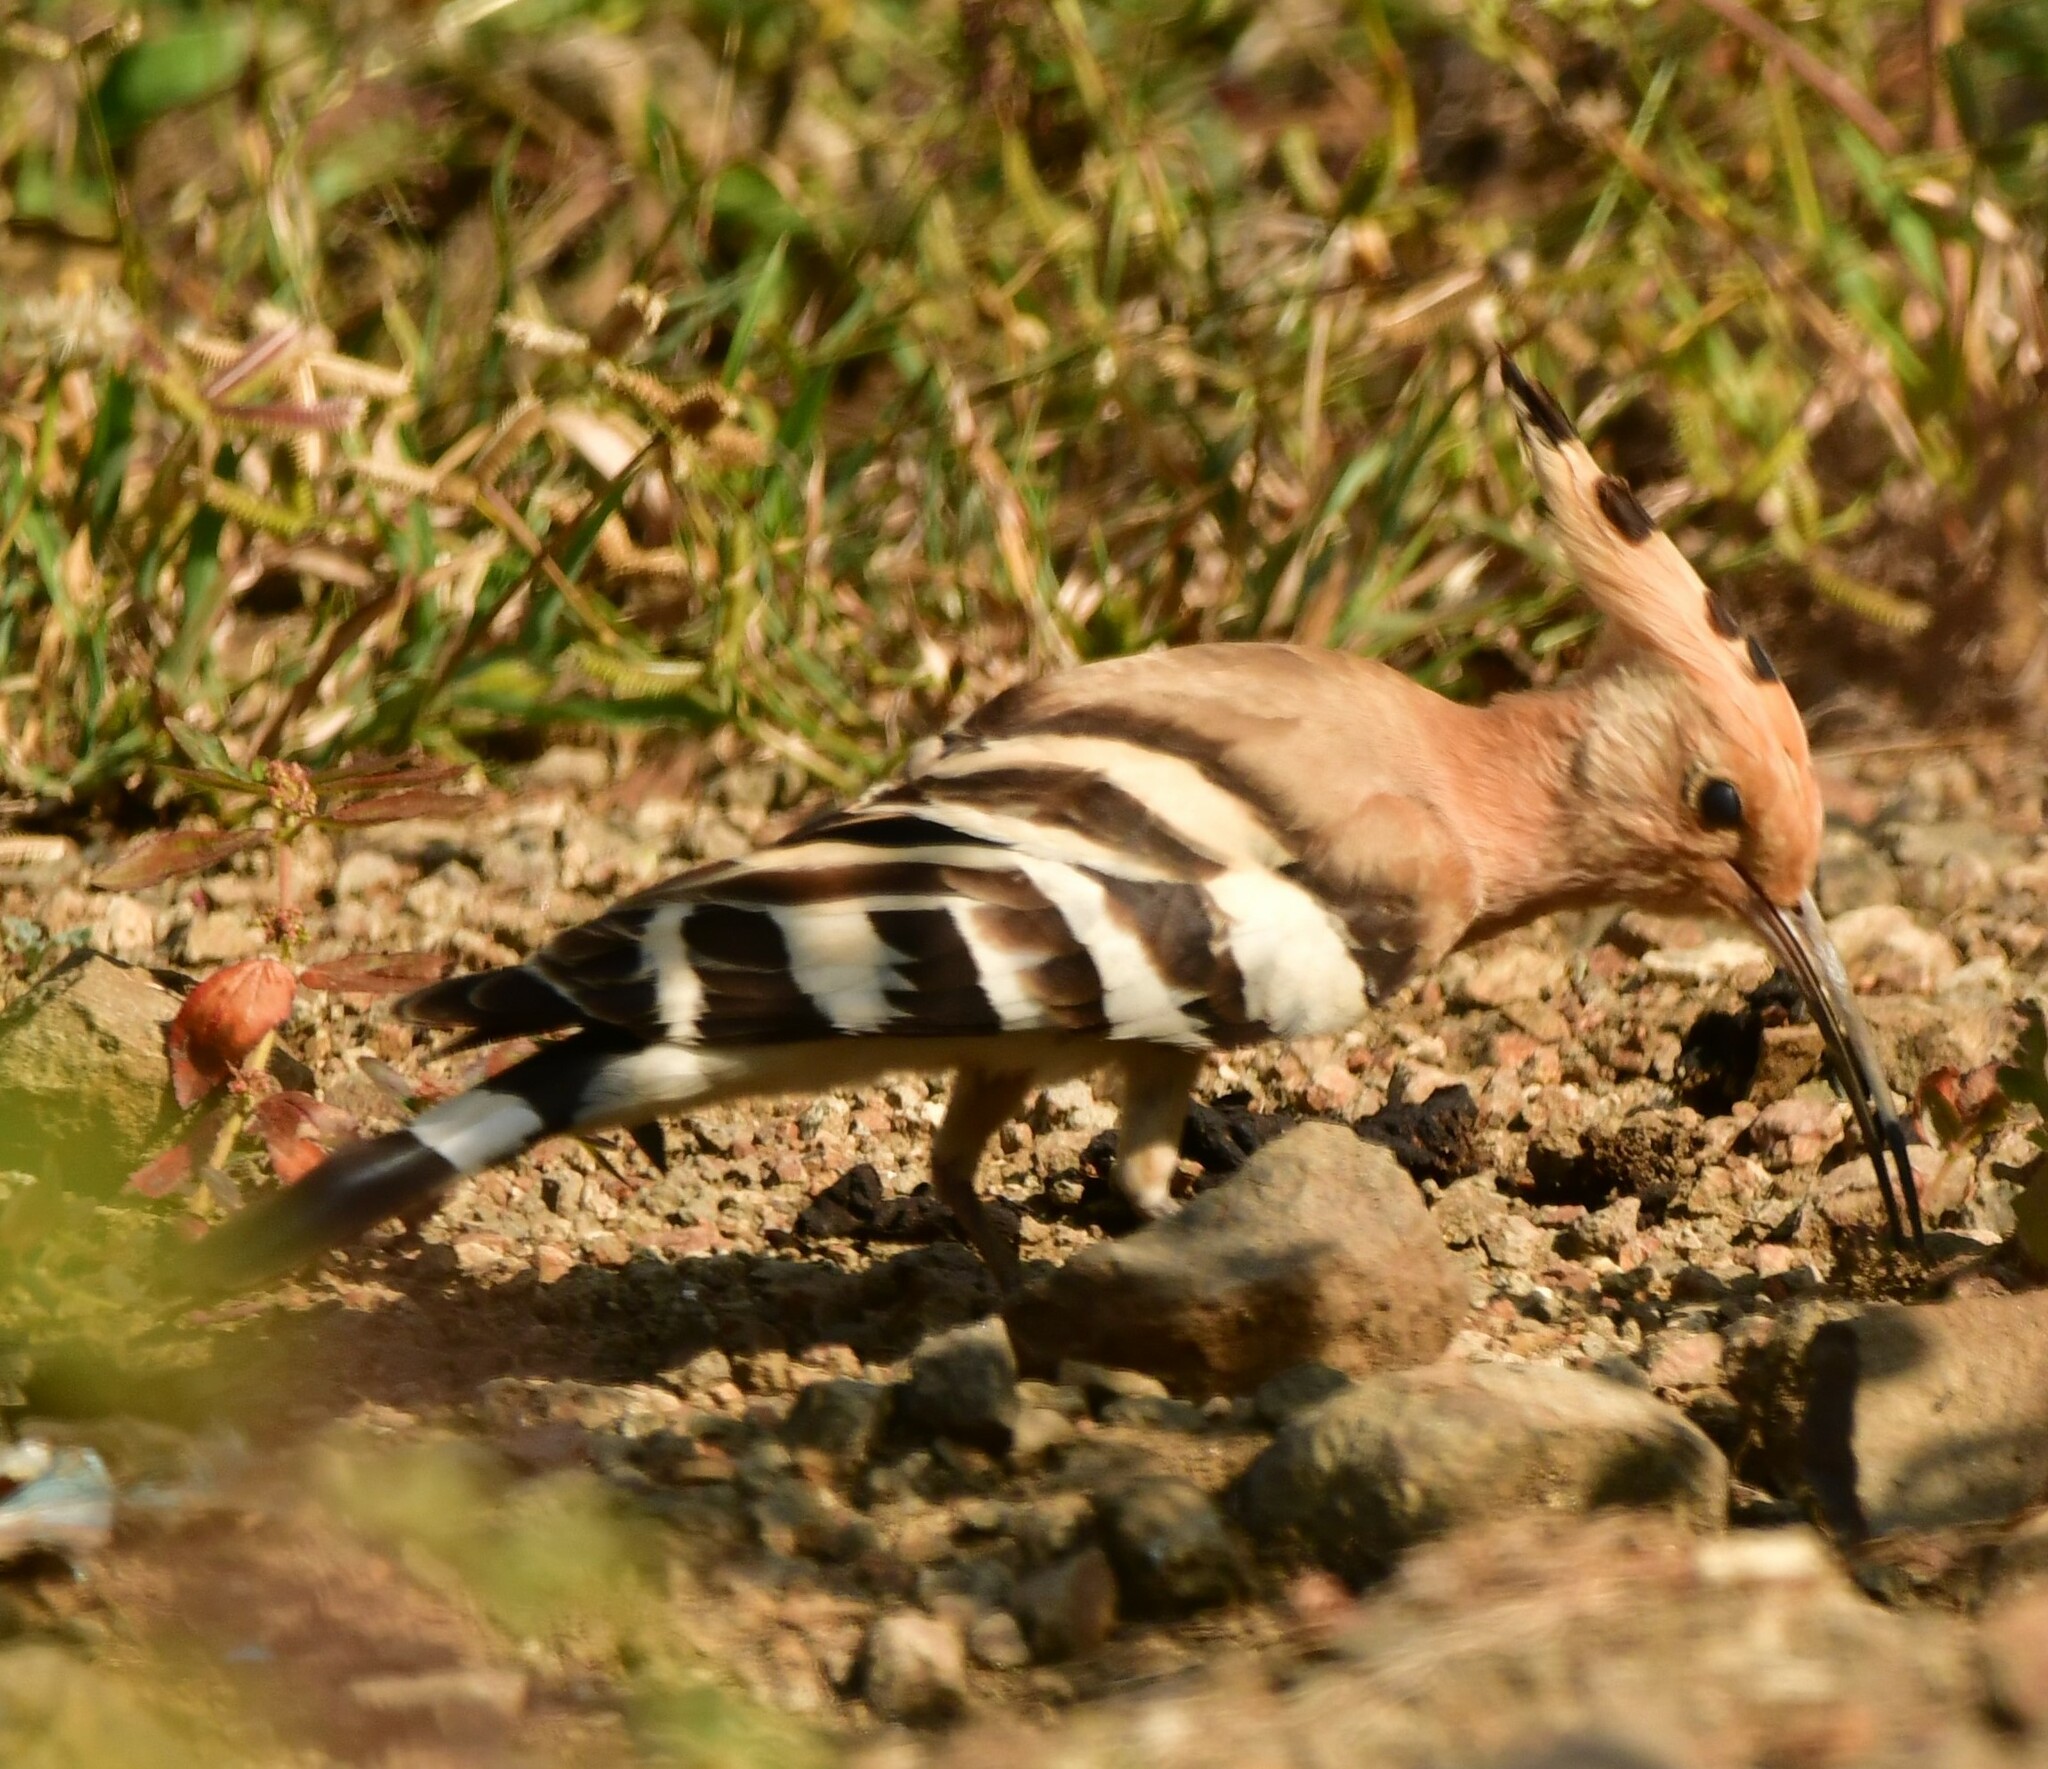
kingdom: Animalia
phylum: Chordata
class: Aves
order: Bucerotiformes
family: Upupidae
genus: Upupa
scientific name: Upupa epops
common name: Eurasian hoopoe
